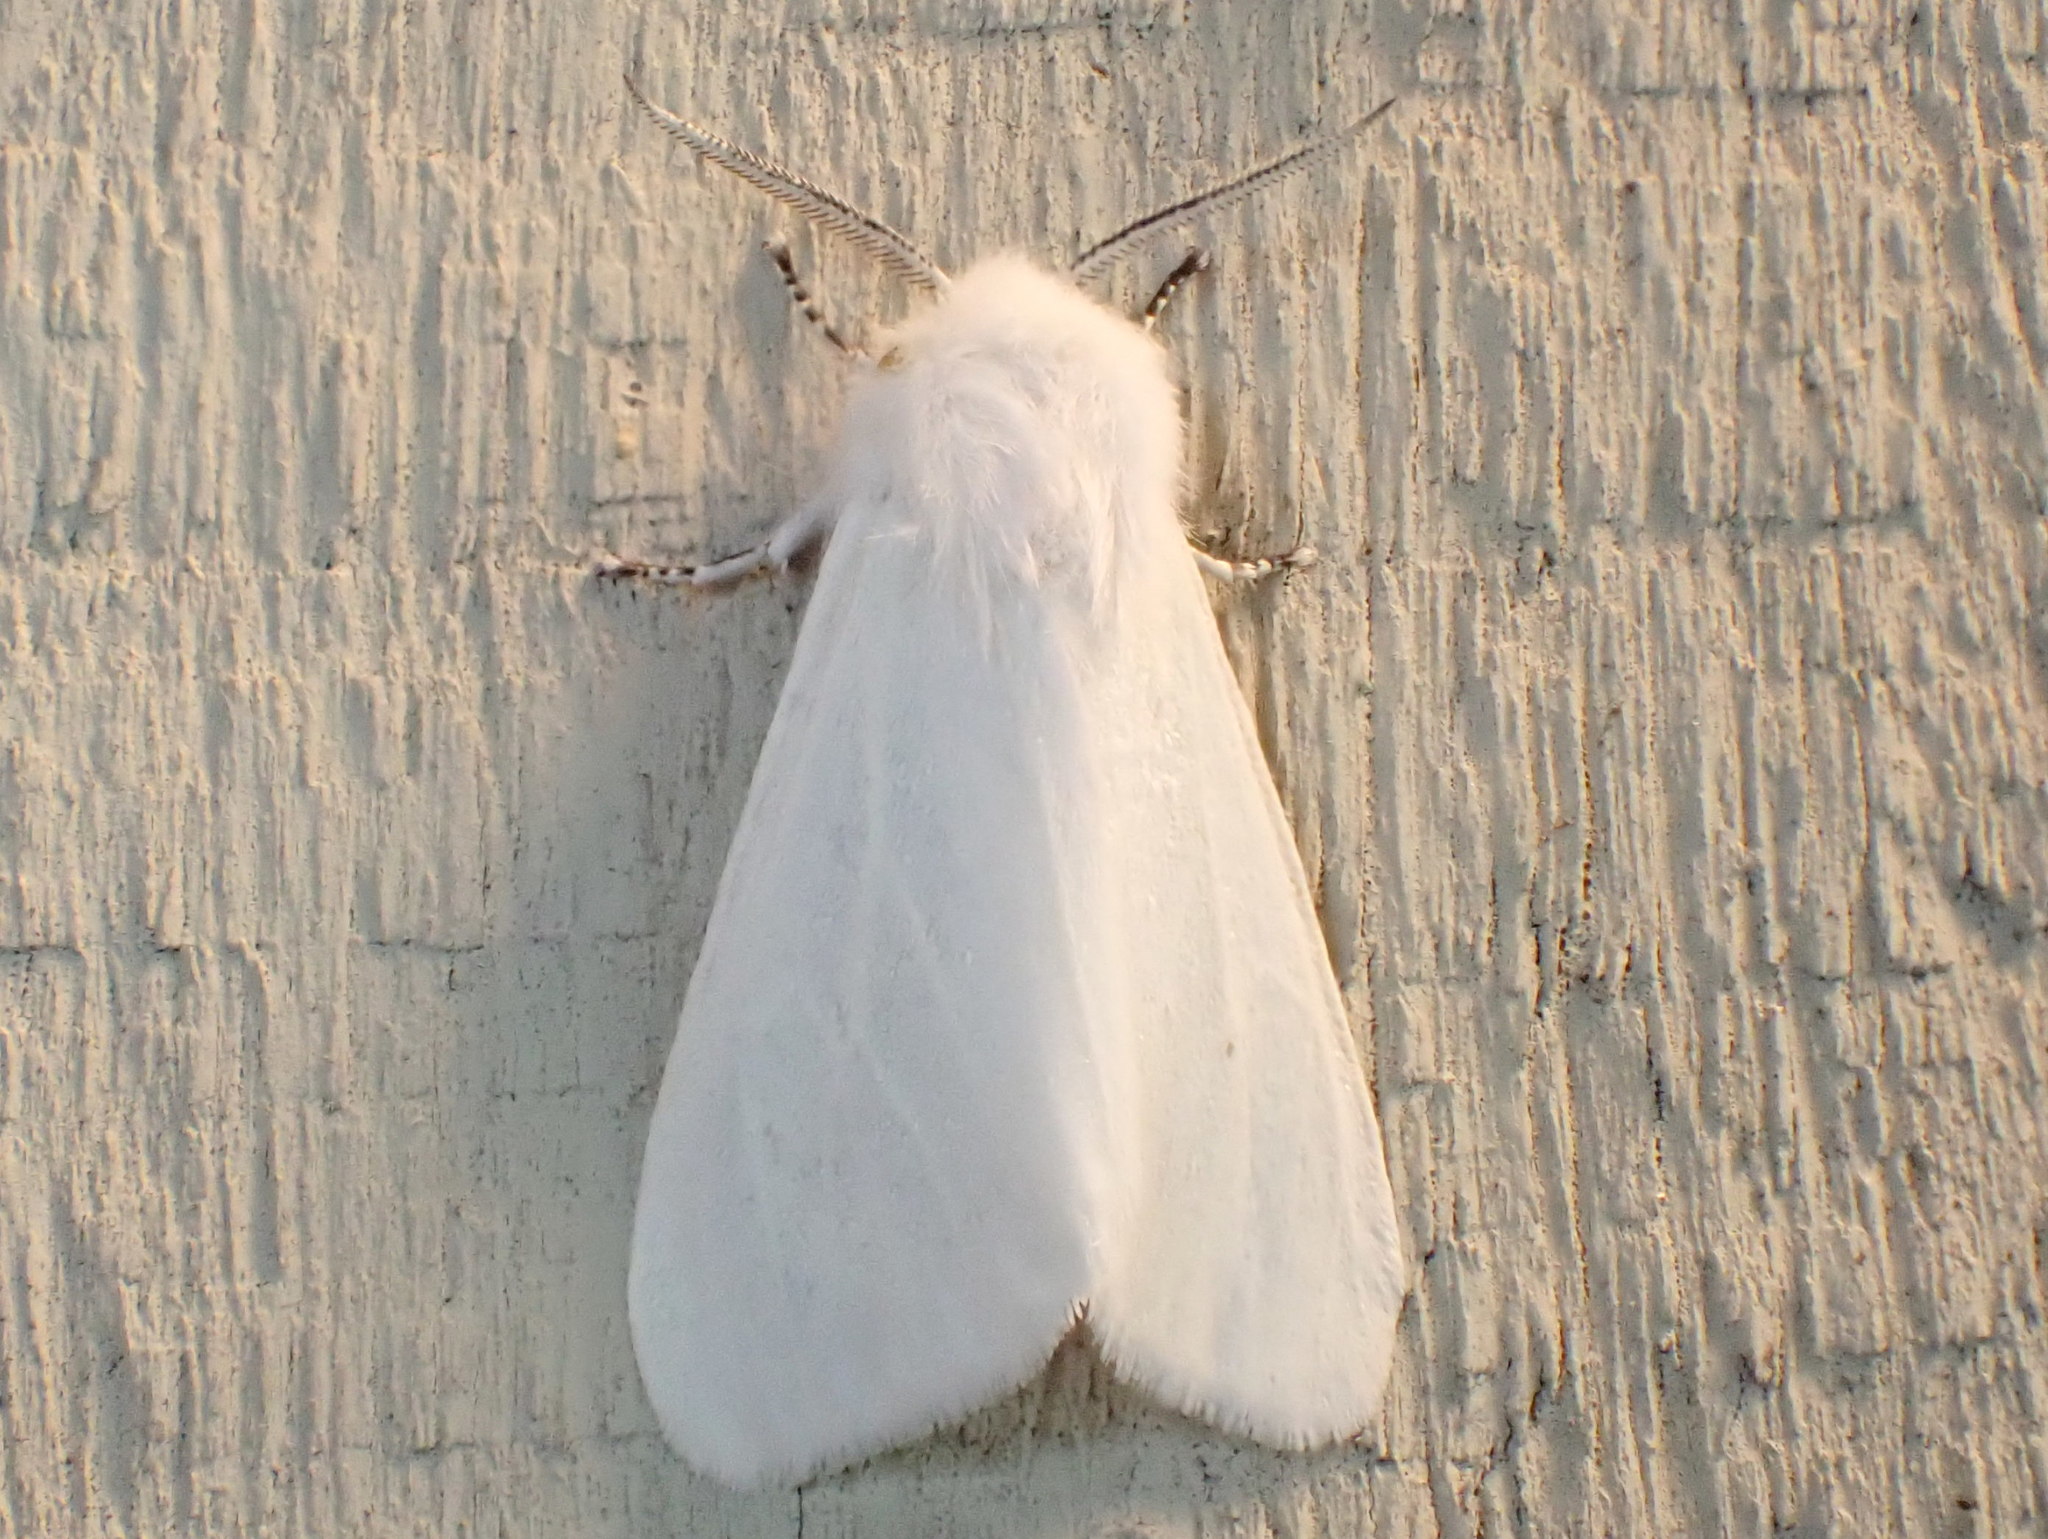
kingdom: Animalia
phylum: Arthropoda
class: Insecta
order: Lepidoptera
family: Erebidae
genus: Hyphantria
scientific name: Hyphantria cunea
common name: American white moth
